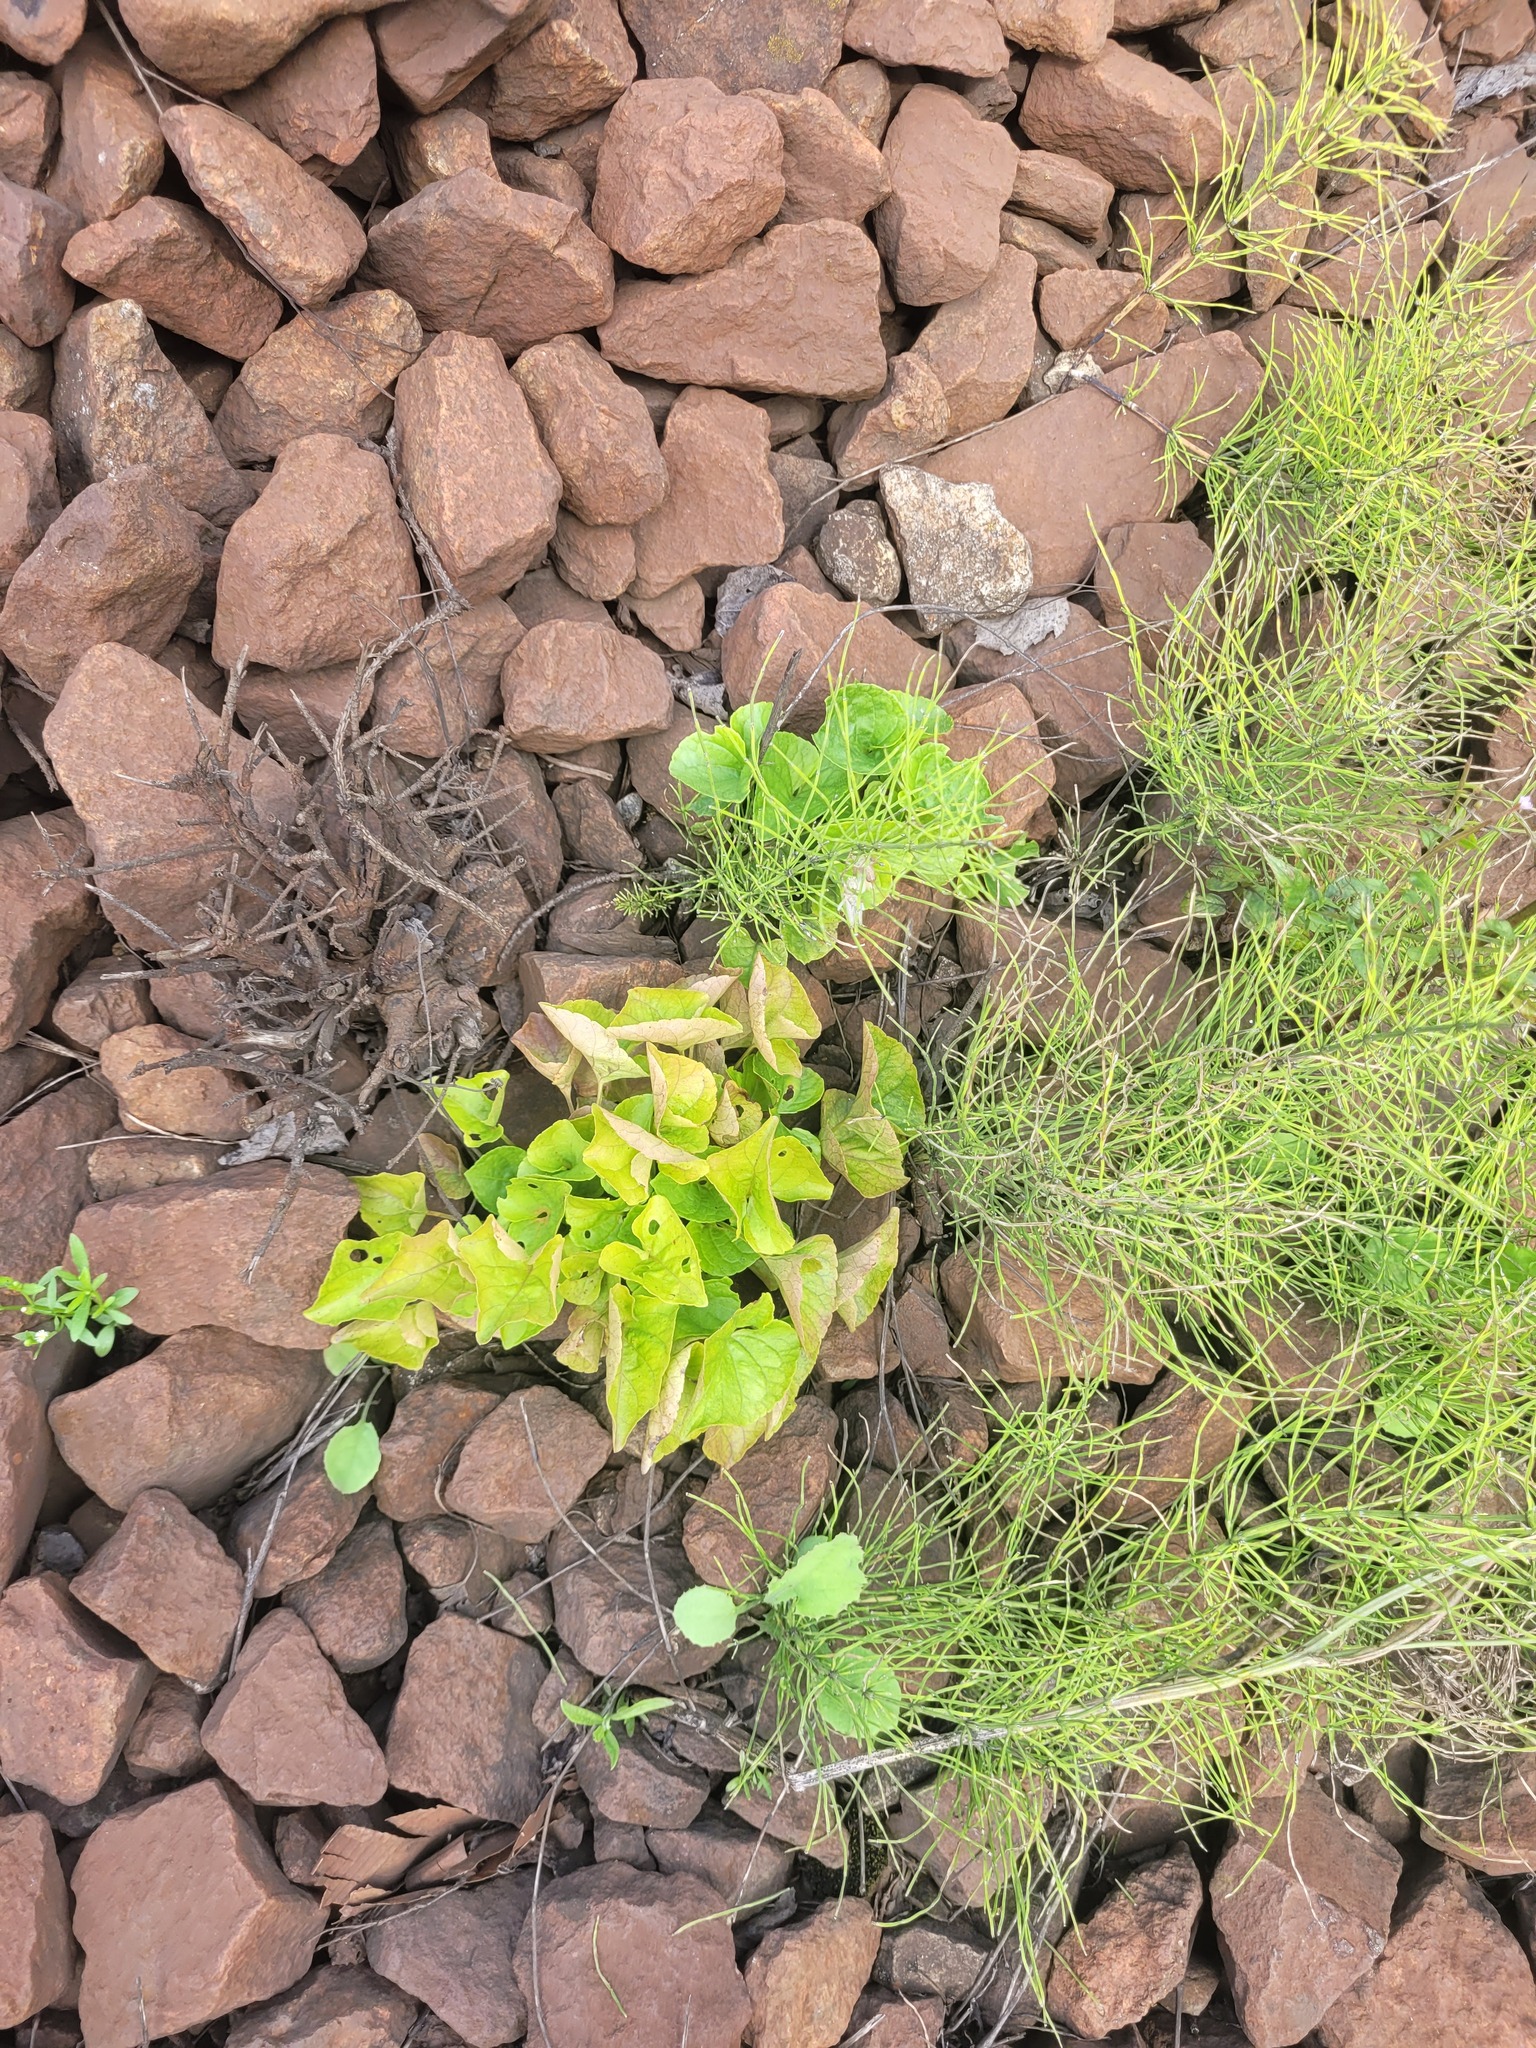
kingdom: Plantae
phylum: Tracheophyta
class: Magnoliopsida
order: Malpighiales
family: Violaceae
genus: Viola
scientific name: Viola mirabilis
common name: Wonder violet
